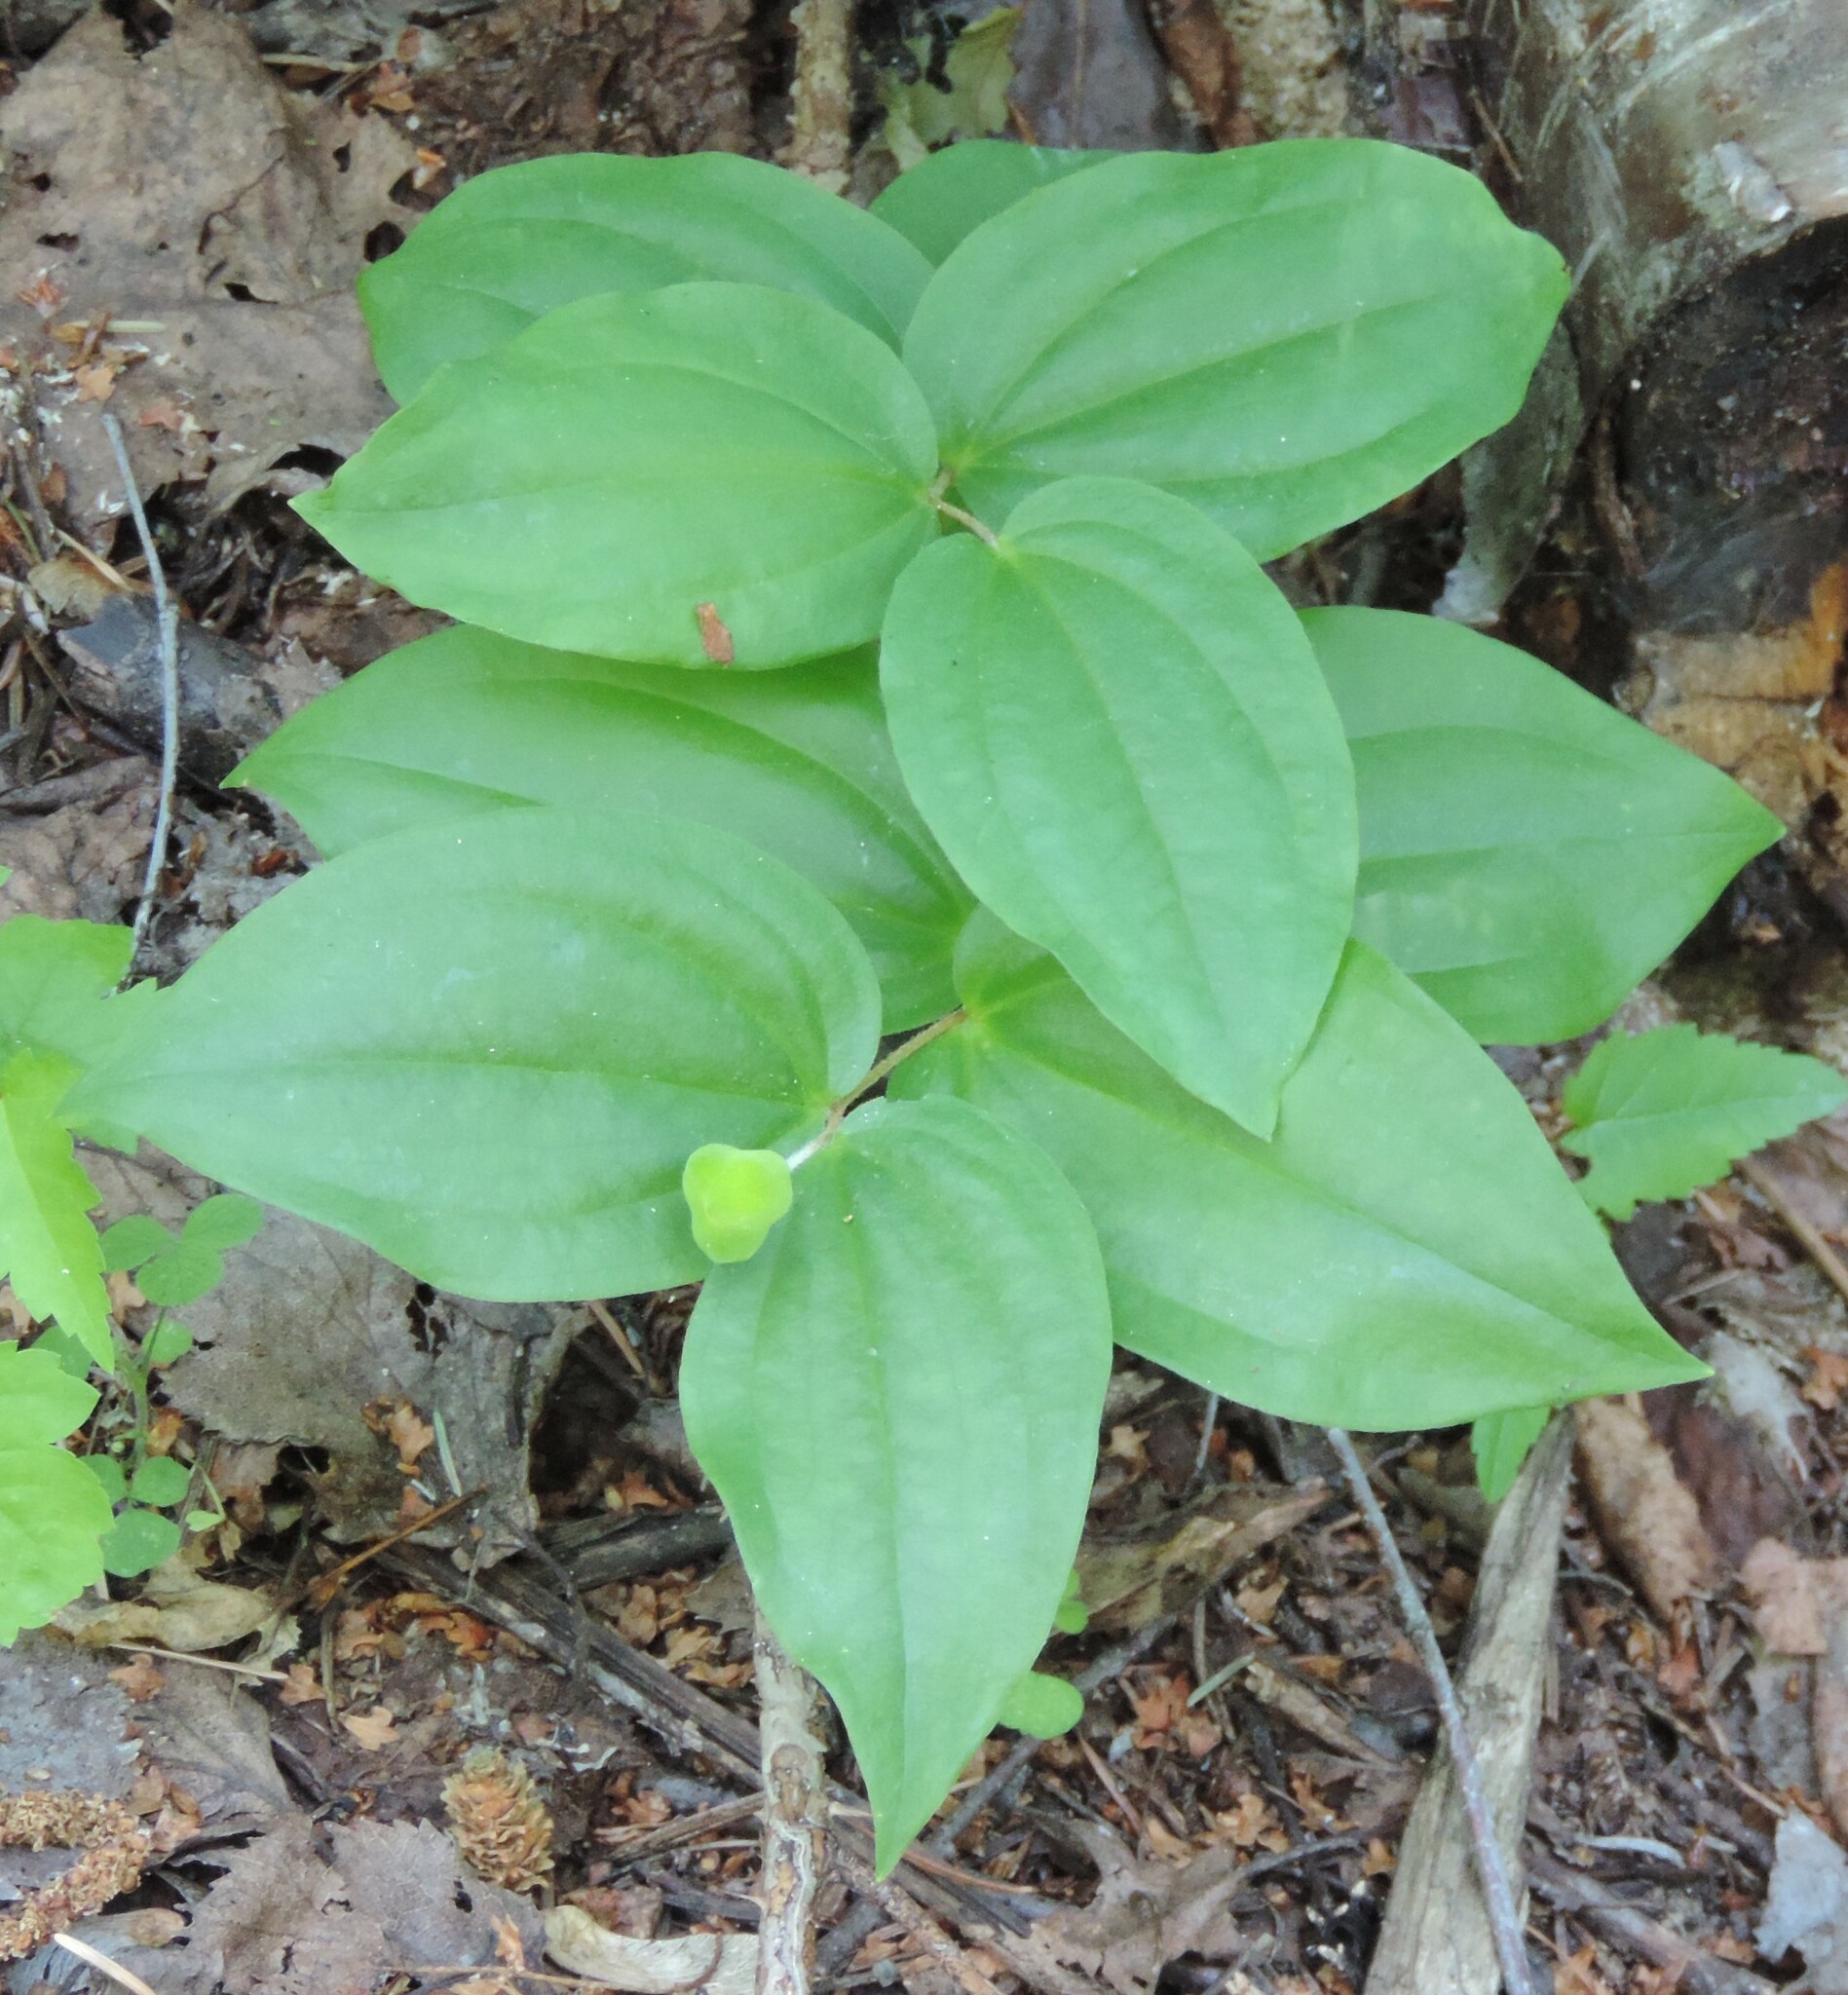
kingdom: Plantae
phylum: Tracheophyta
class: Liliopsida
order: Liliales
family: Liliaceae
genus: Prosartes
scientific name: Prosartes trachycarpa
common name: Rough-fruit fairy-bells
